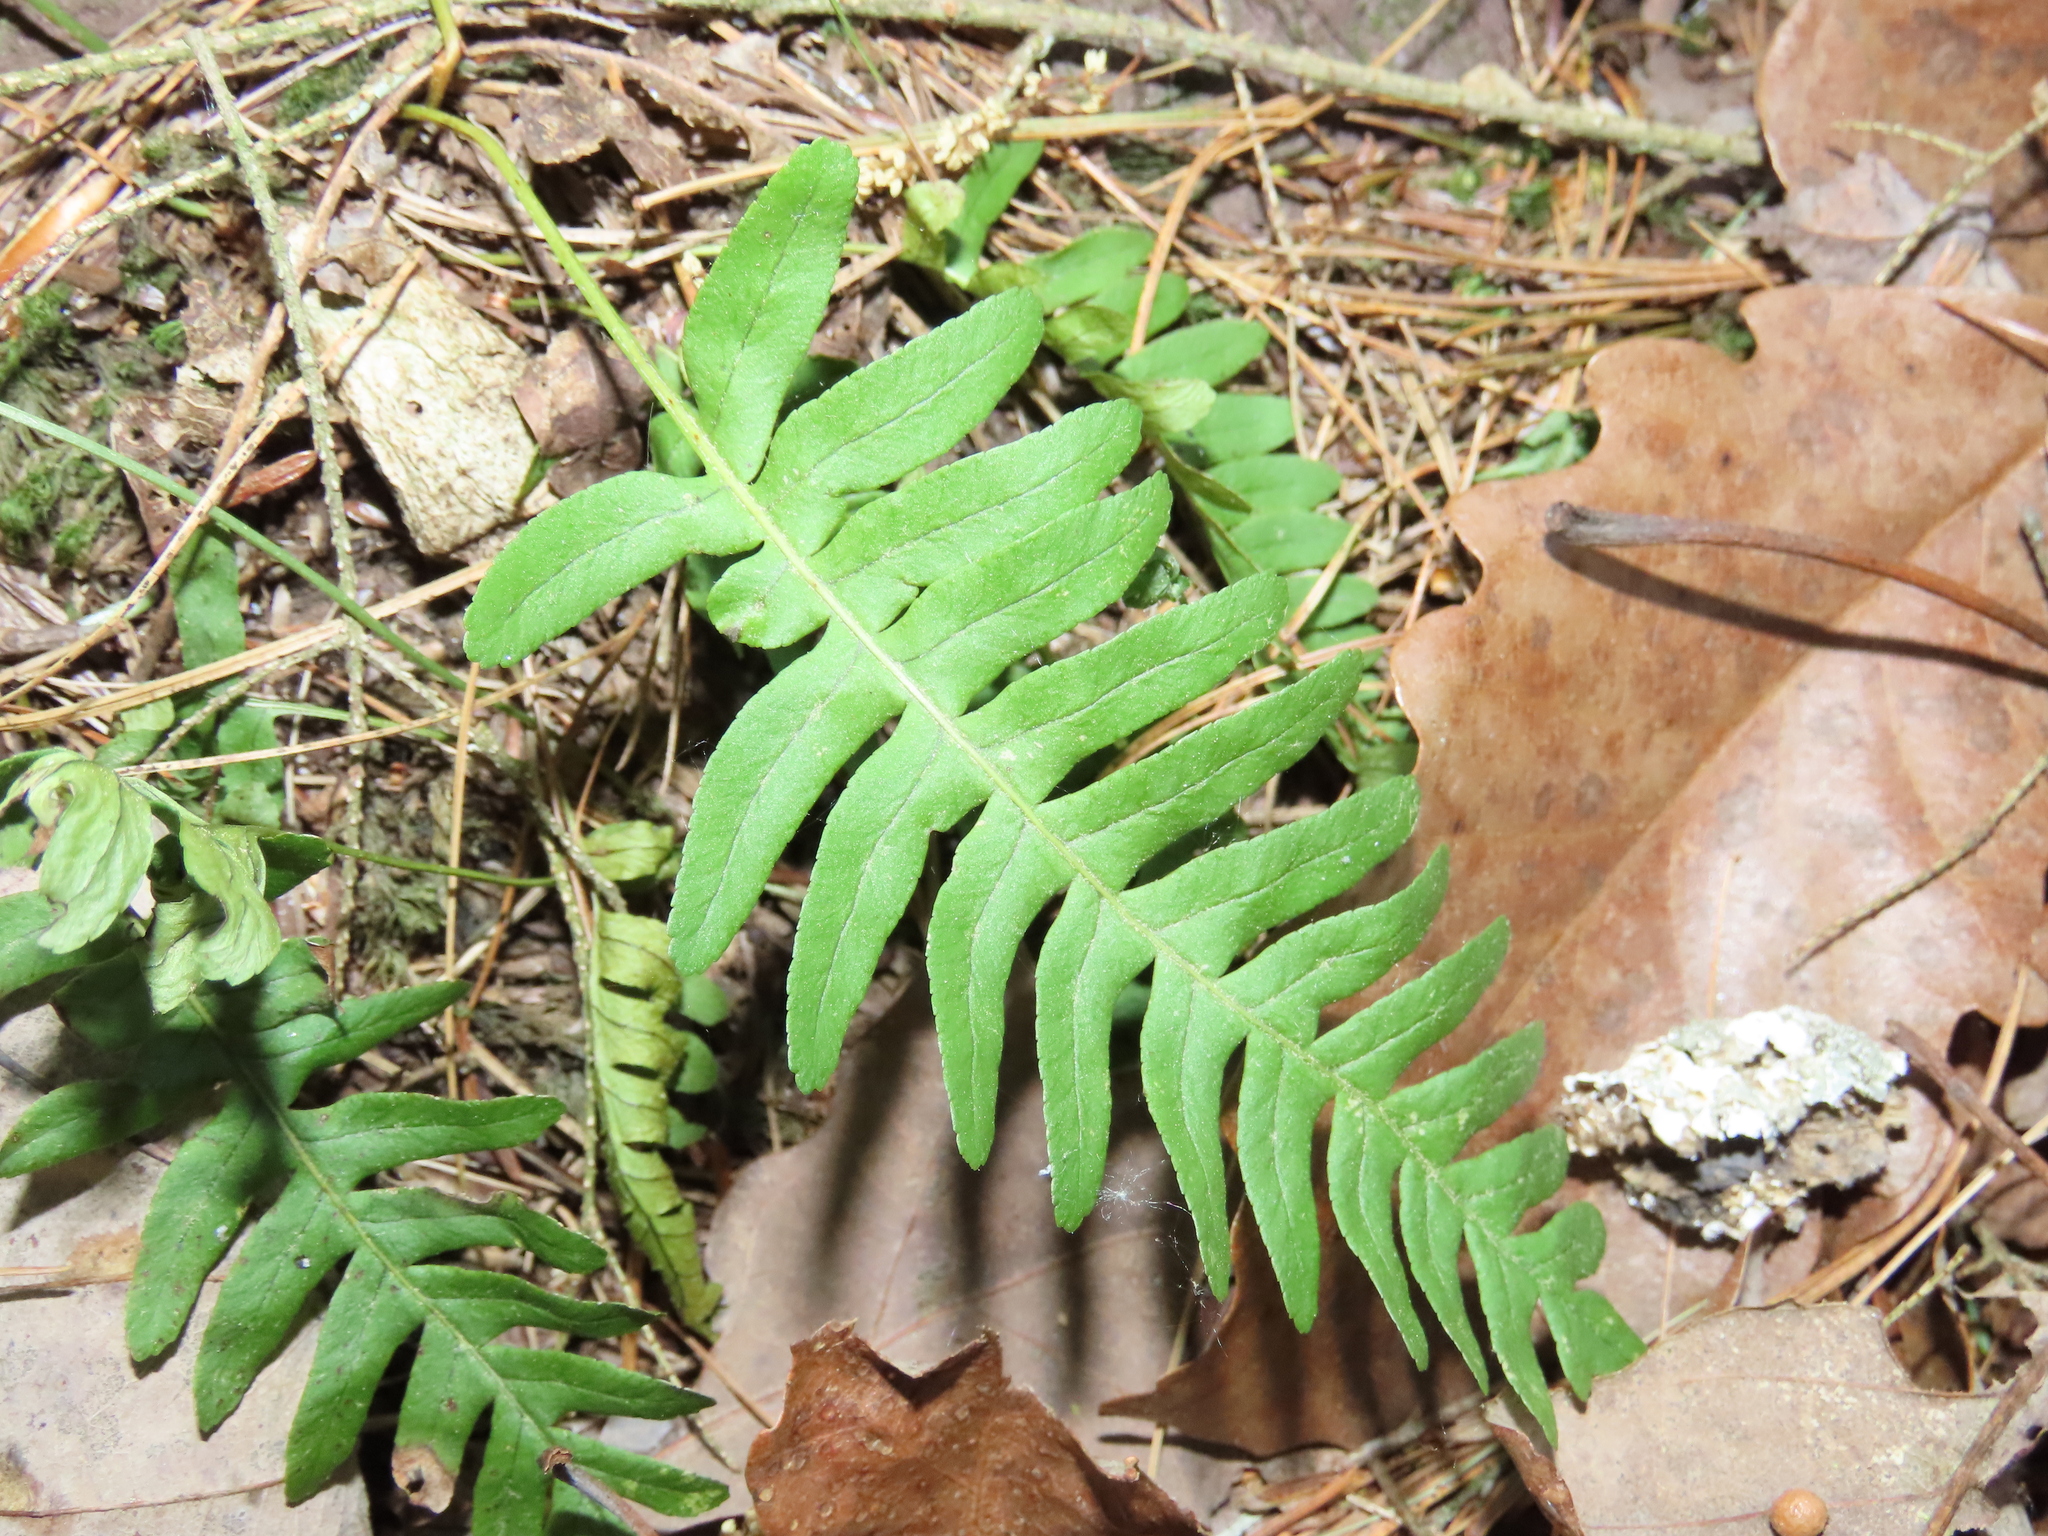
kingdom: Plantae
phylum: Tracheophyta
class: Polypodiopsida
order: Polypodiales
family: Polypodiaceae
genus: Polypodium
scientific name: Polypodium virginianum
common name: American wall fern
